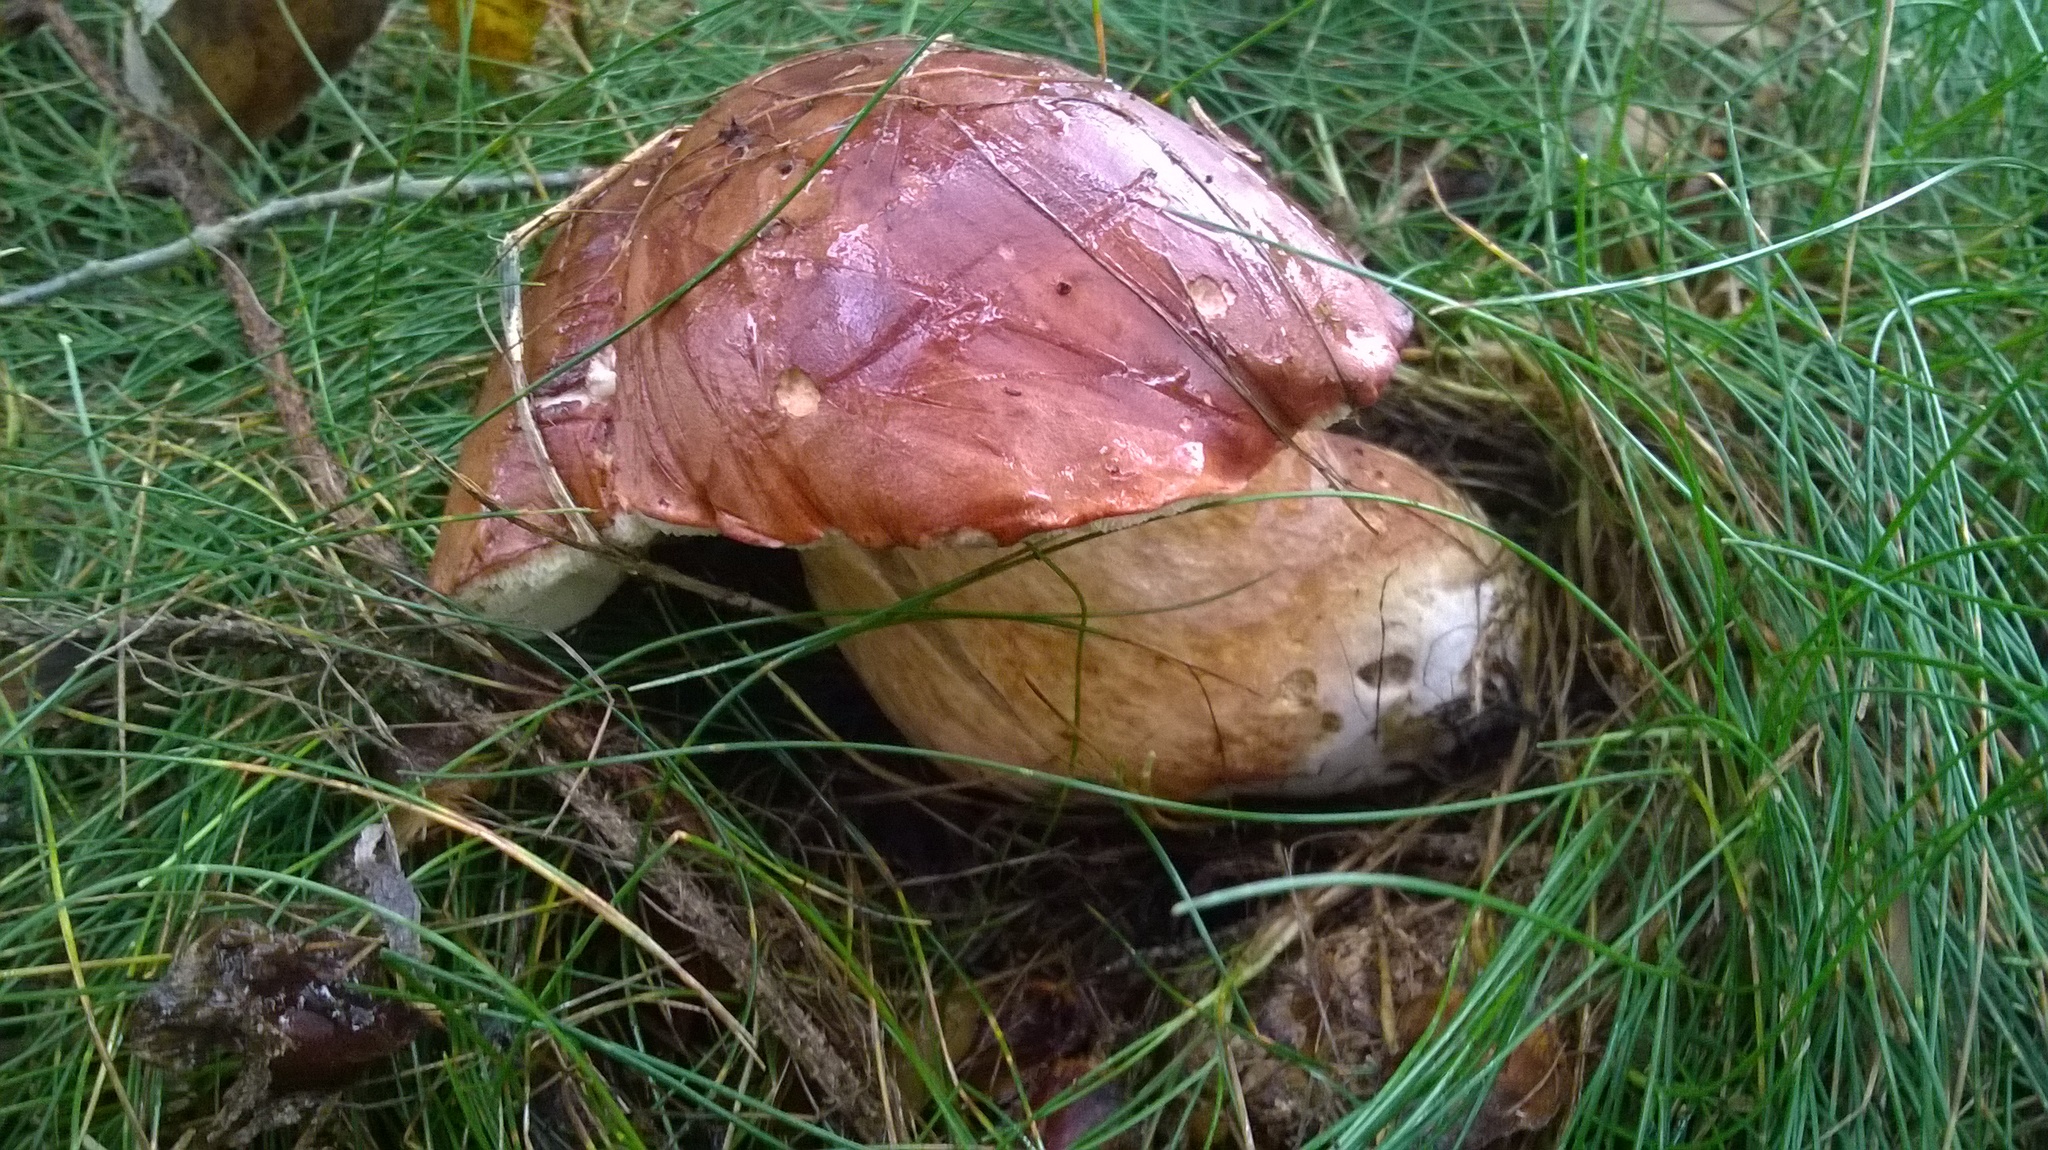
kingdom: Fungi
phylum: Basidiomycota
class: Agaricomycetes
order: Boletales
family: Boletaceae
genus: Imleria
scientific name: Imleria badia
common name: Bay bolete
